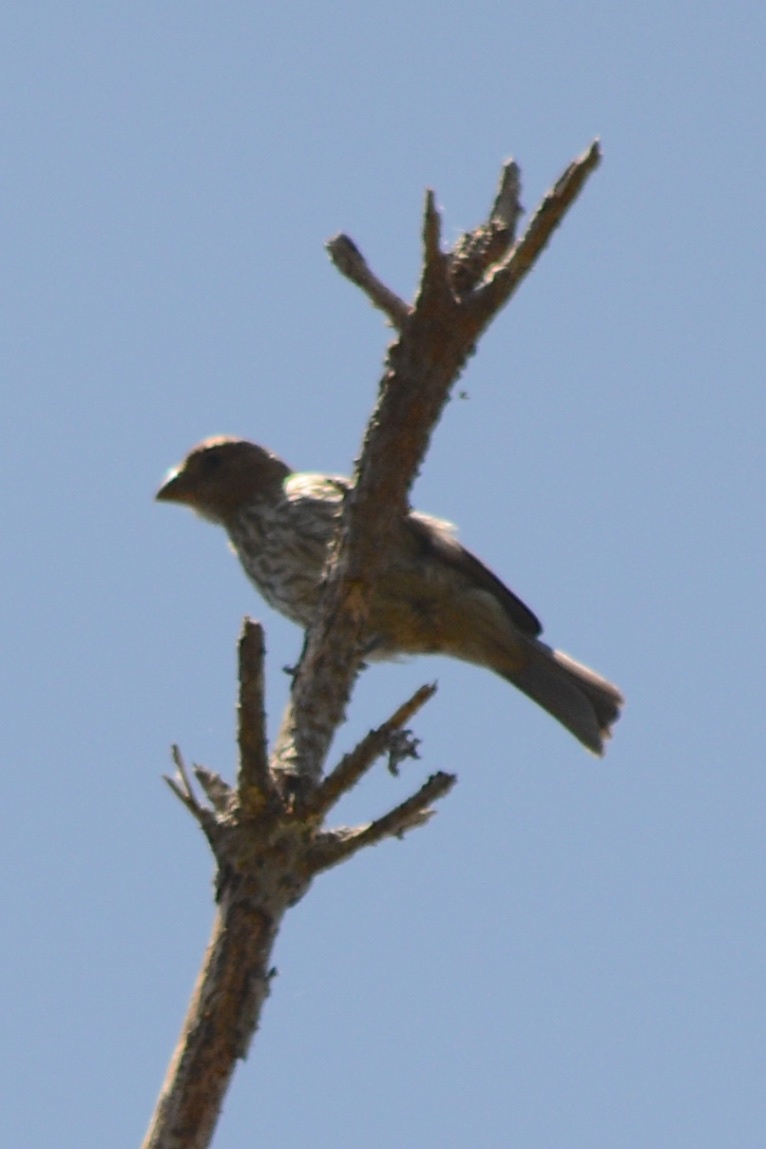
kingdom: Animalia
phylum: Chordata
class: Aves
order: Passeriformes
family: Fringillidae
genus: Haemorhous
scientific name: Haemorhous mexicanus
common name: House finch
